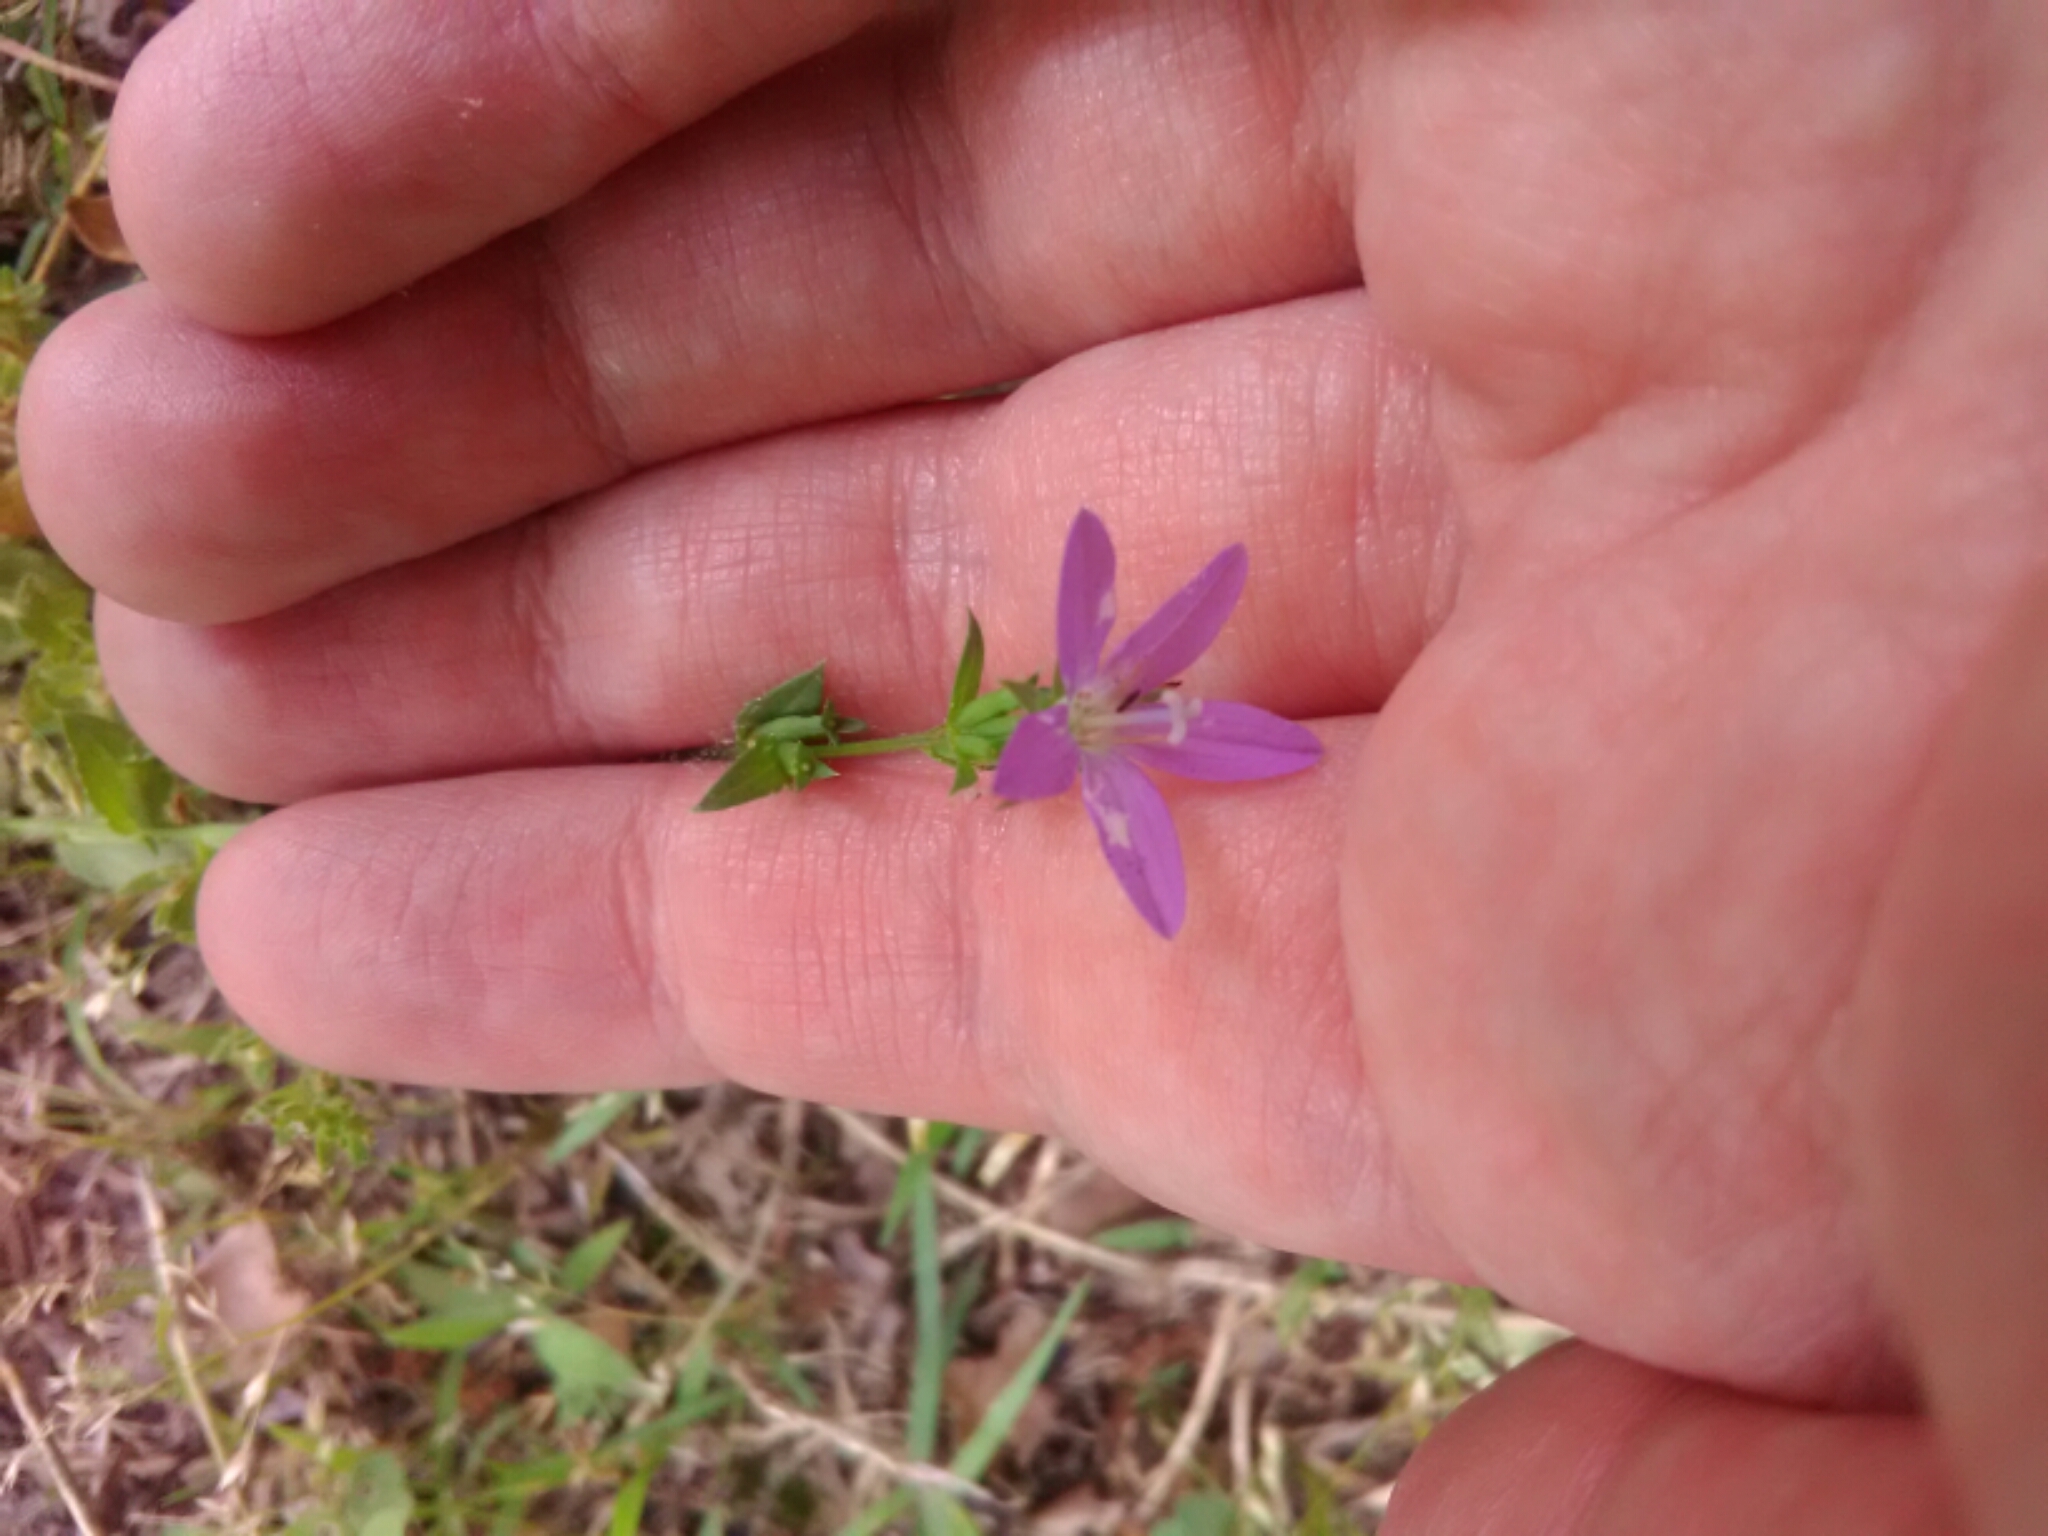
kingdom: Plantae
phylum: Tracheophyta
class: Magnoliopsida
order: Asterales
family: Campanulaceae
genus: Triodanis
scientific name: Triodanis perfoliata
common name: Clasping venus' looking-glass
